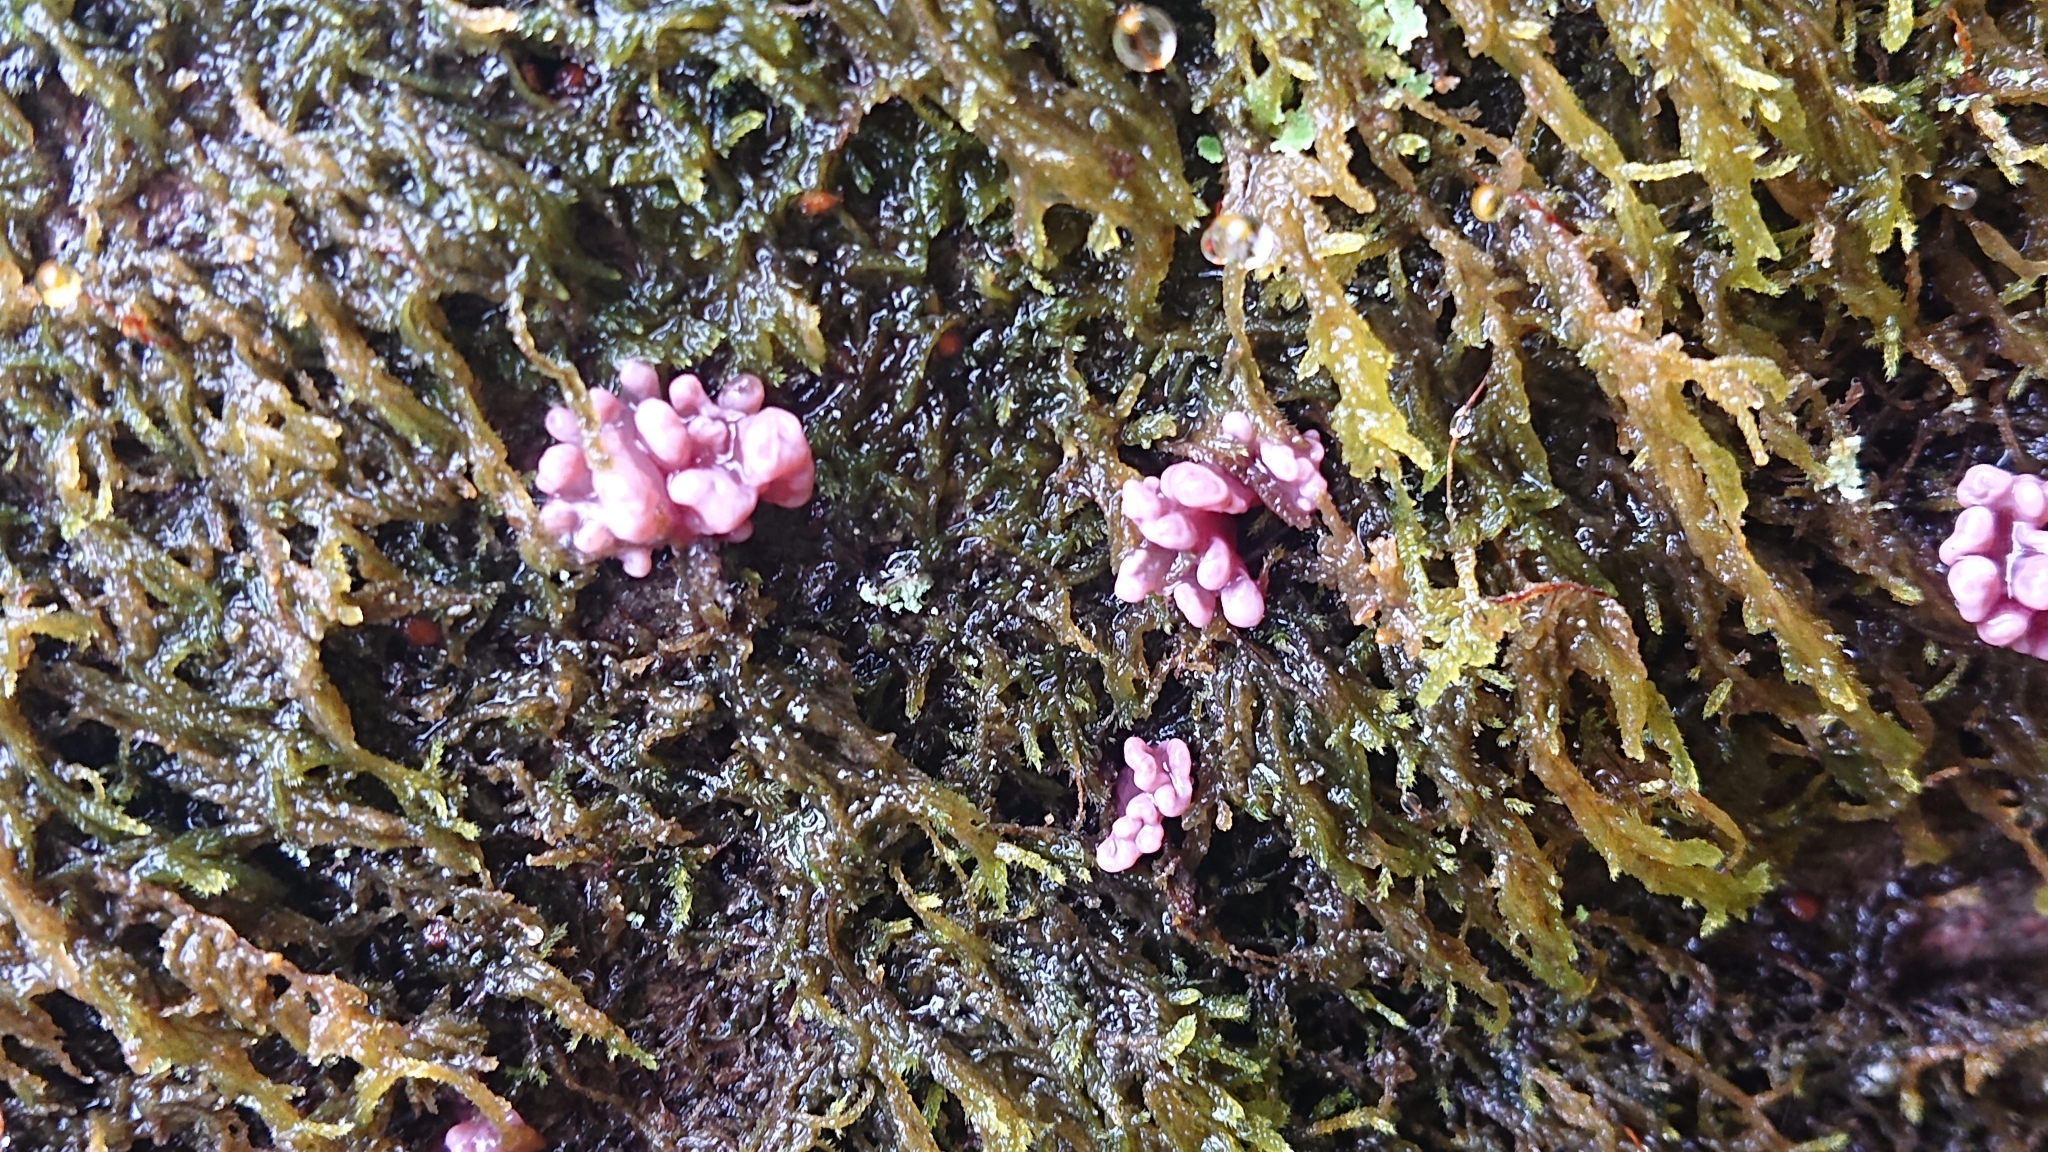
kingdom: Fungi
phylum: Ascomycota
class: Leotiomycetes
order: Helotiales
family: Gelatinodiscaceae
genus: Ascocoryne
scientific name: Ascocoryne sarcoides
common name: Purple jellydisc
